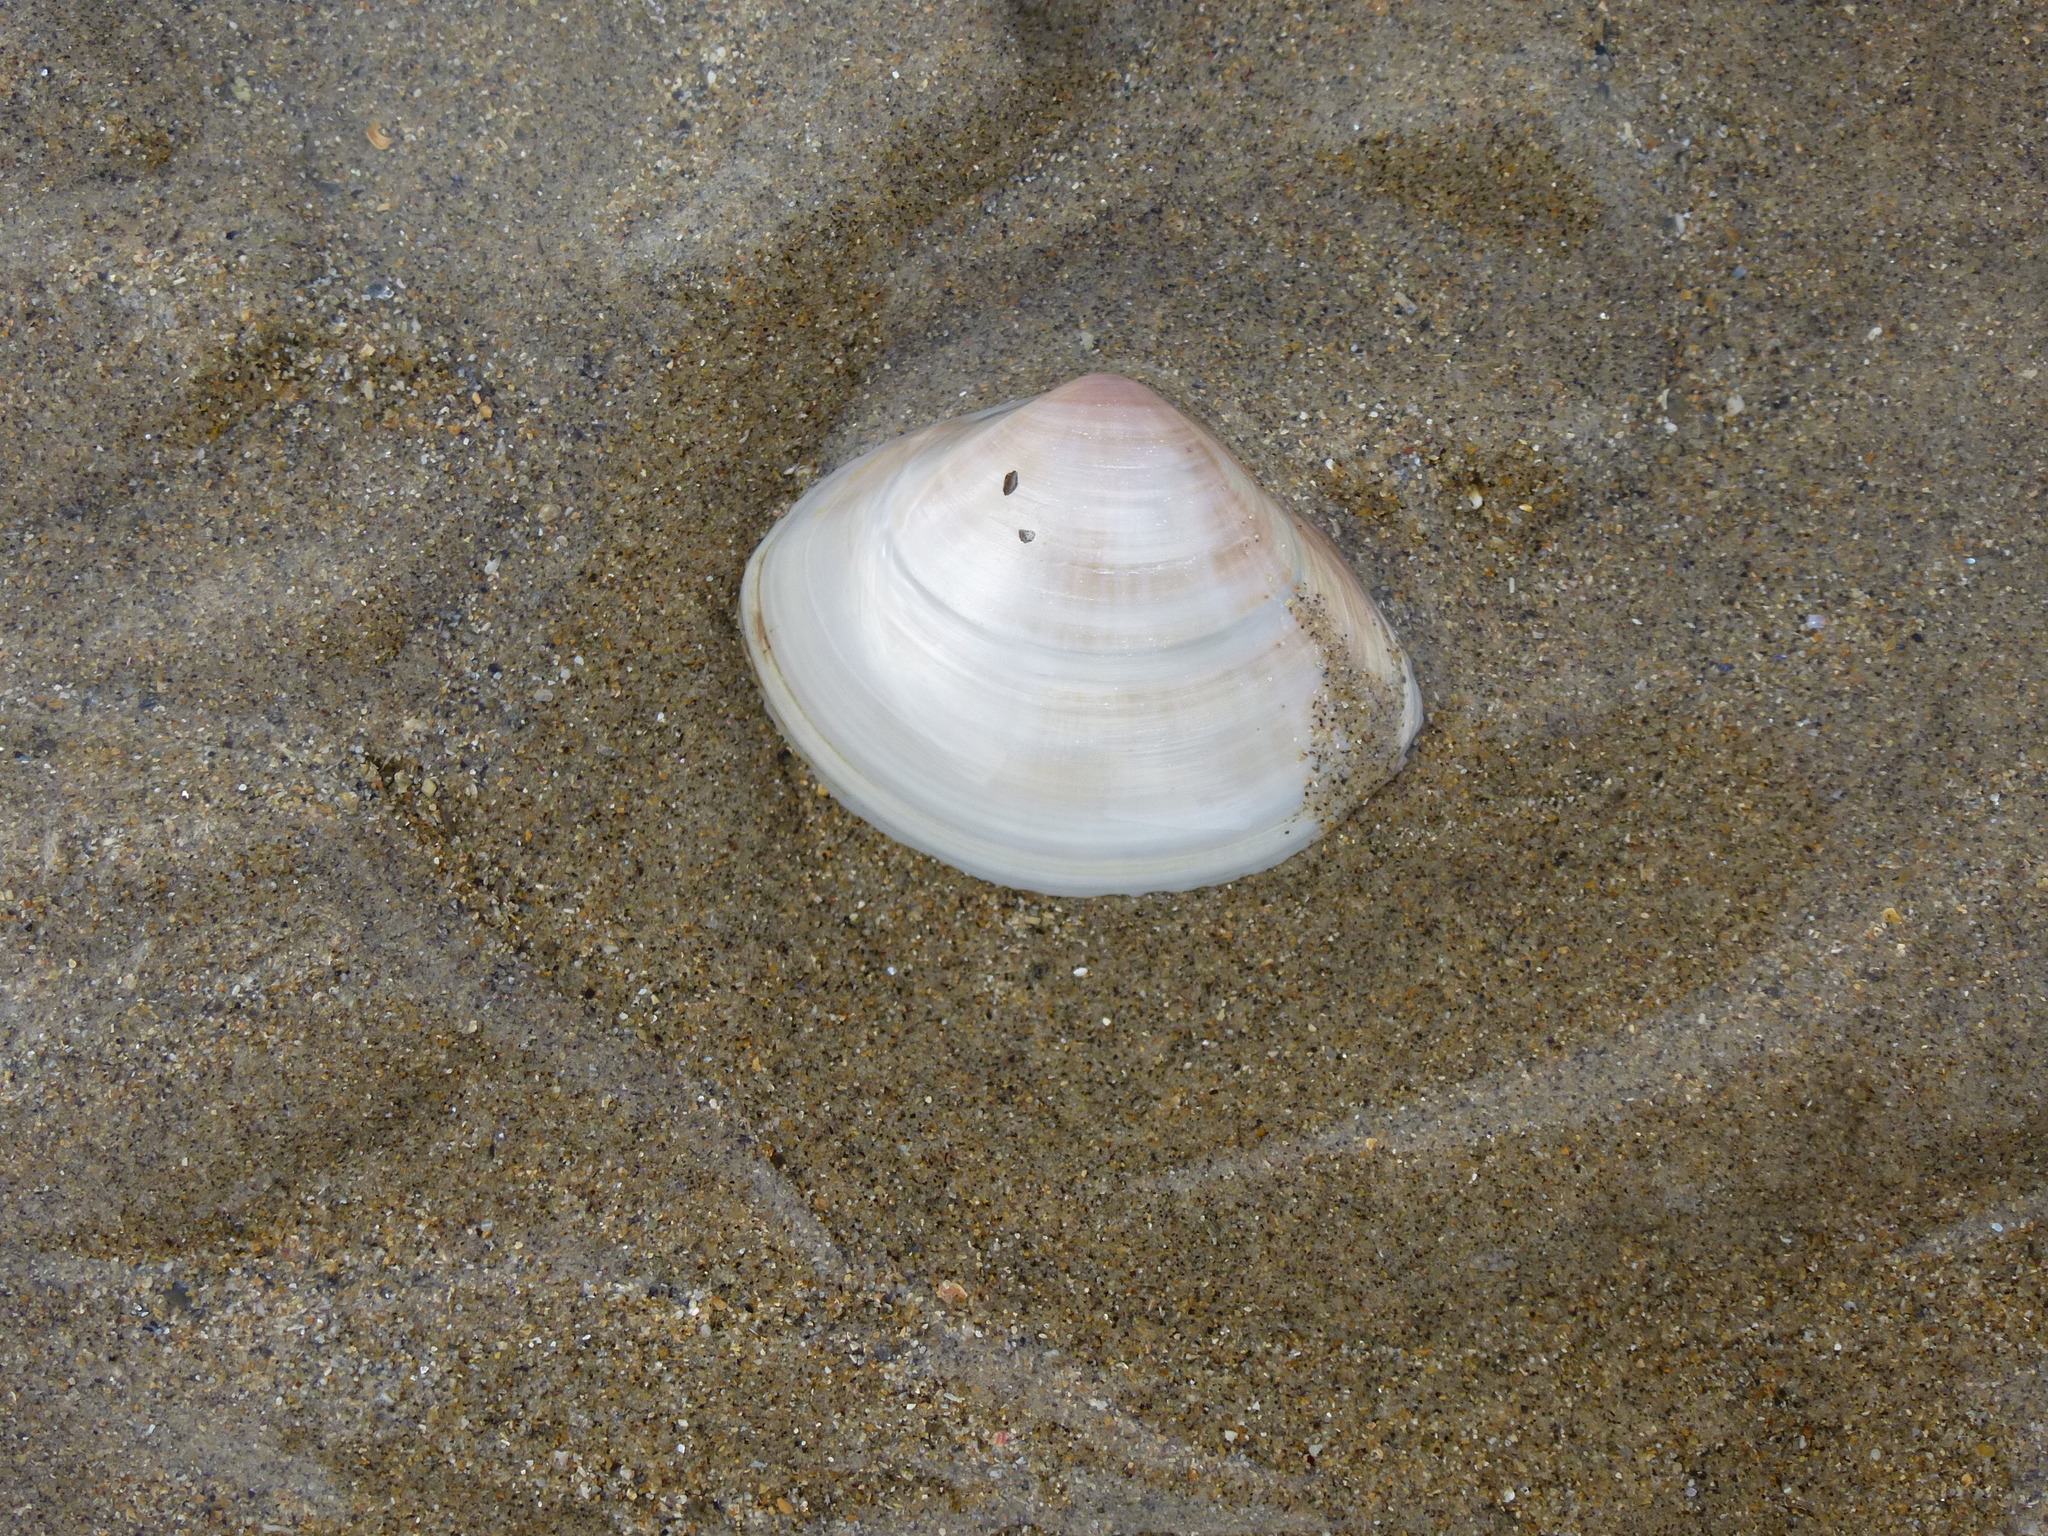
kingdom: Animalia
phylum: Mollusca
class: Bivalvia
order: Venerida
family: Mactridae
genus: Mactra
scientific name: Mactra stultorum
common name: Rayed trough shell
